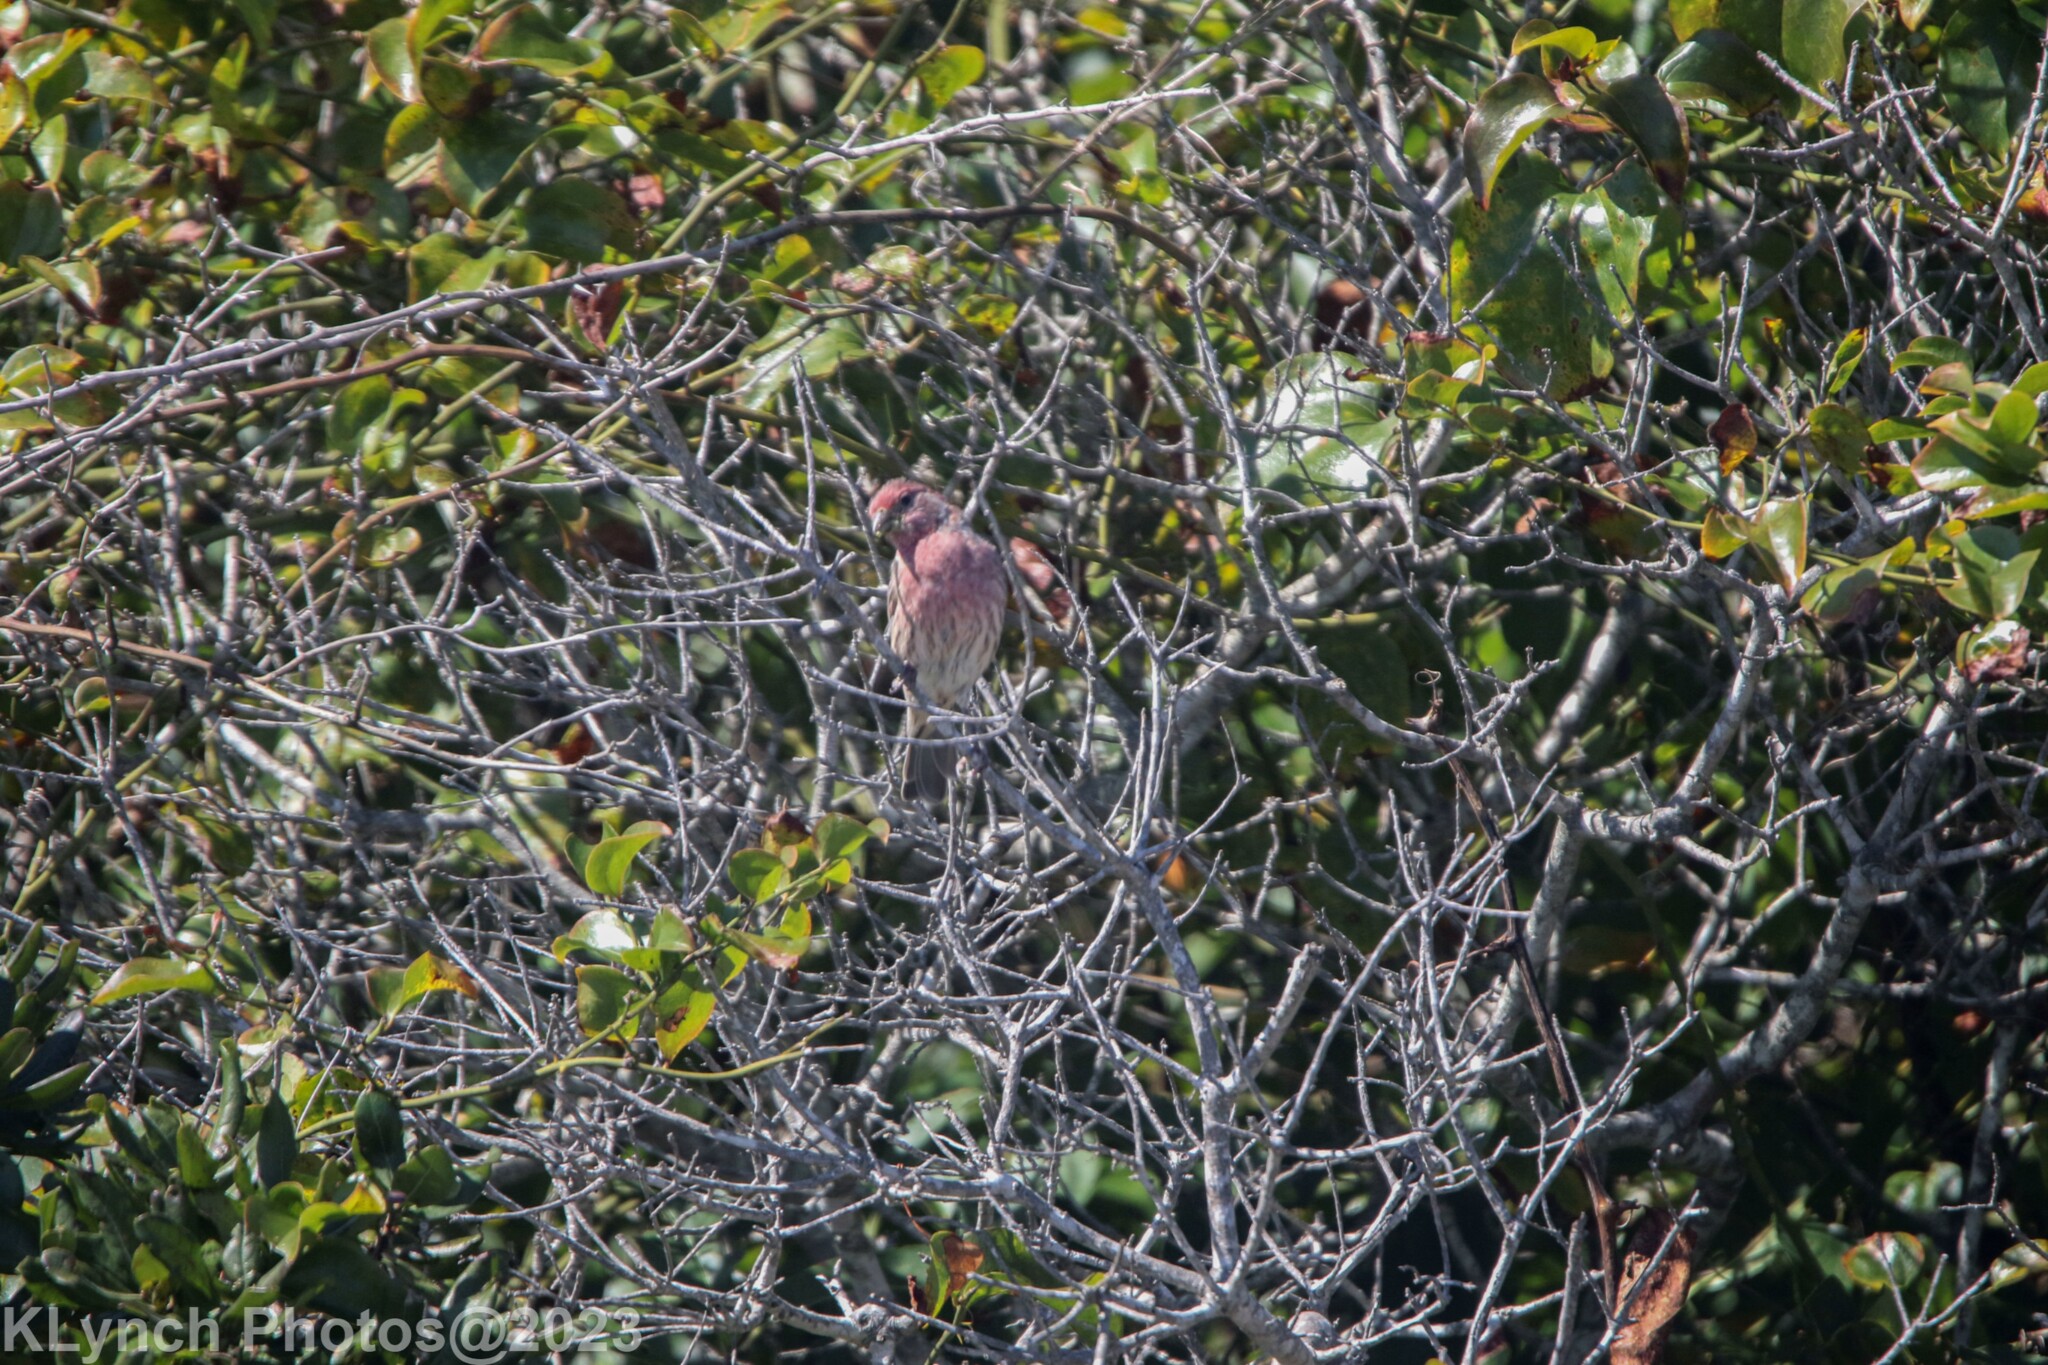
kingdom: Animalia
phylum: Chordata
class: Aves
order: Passeriformes
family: Fringillidae
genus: Haemorhous
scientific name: Haemorhous mexicanus
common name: House finch
